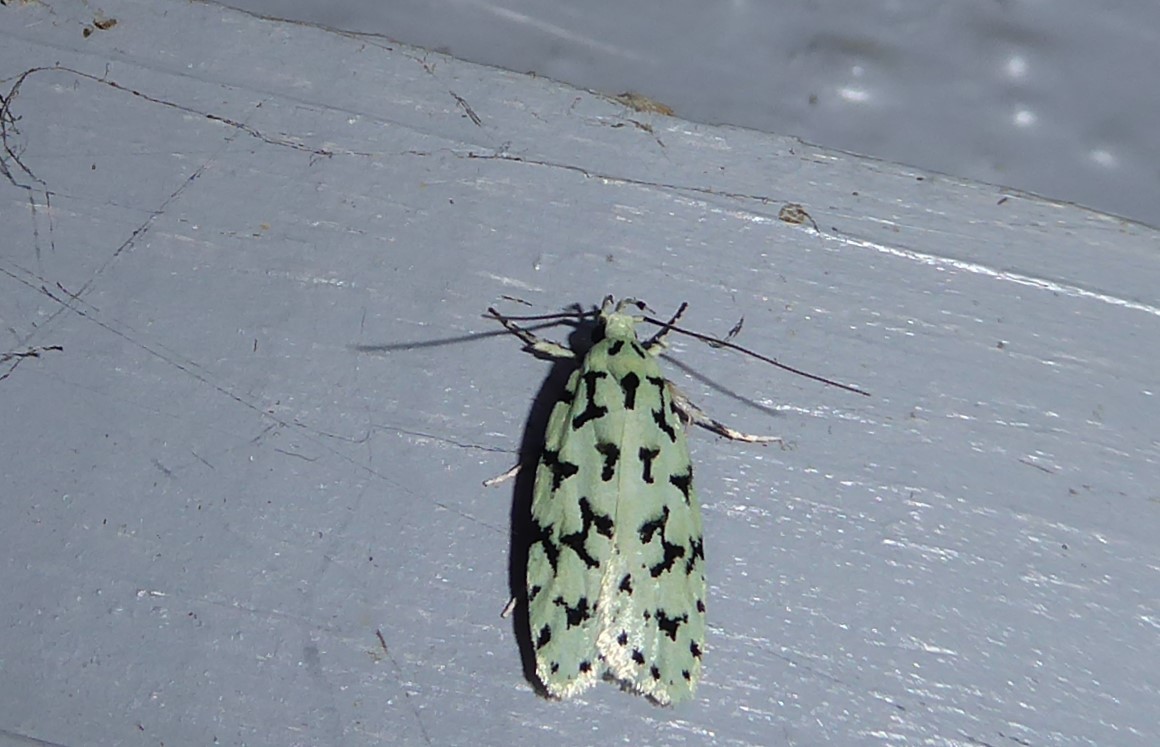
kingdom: Animalia
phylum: Arthropoda
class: Insecta
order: Lepidoptera
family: Oecophoridae
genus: Izatha
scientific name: Izatha huttoni
